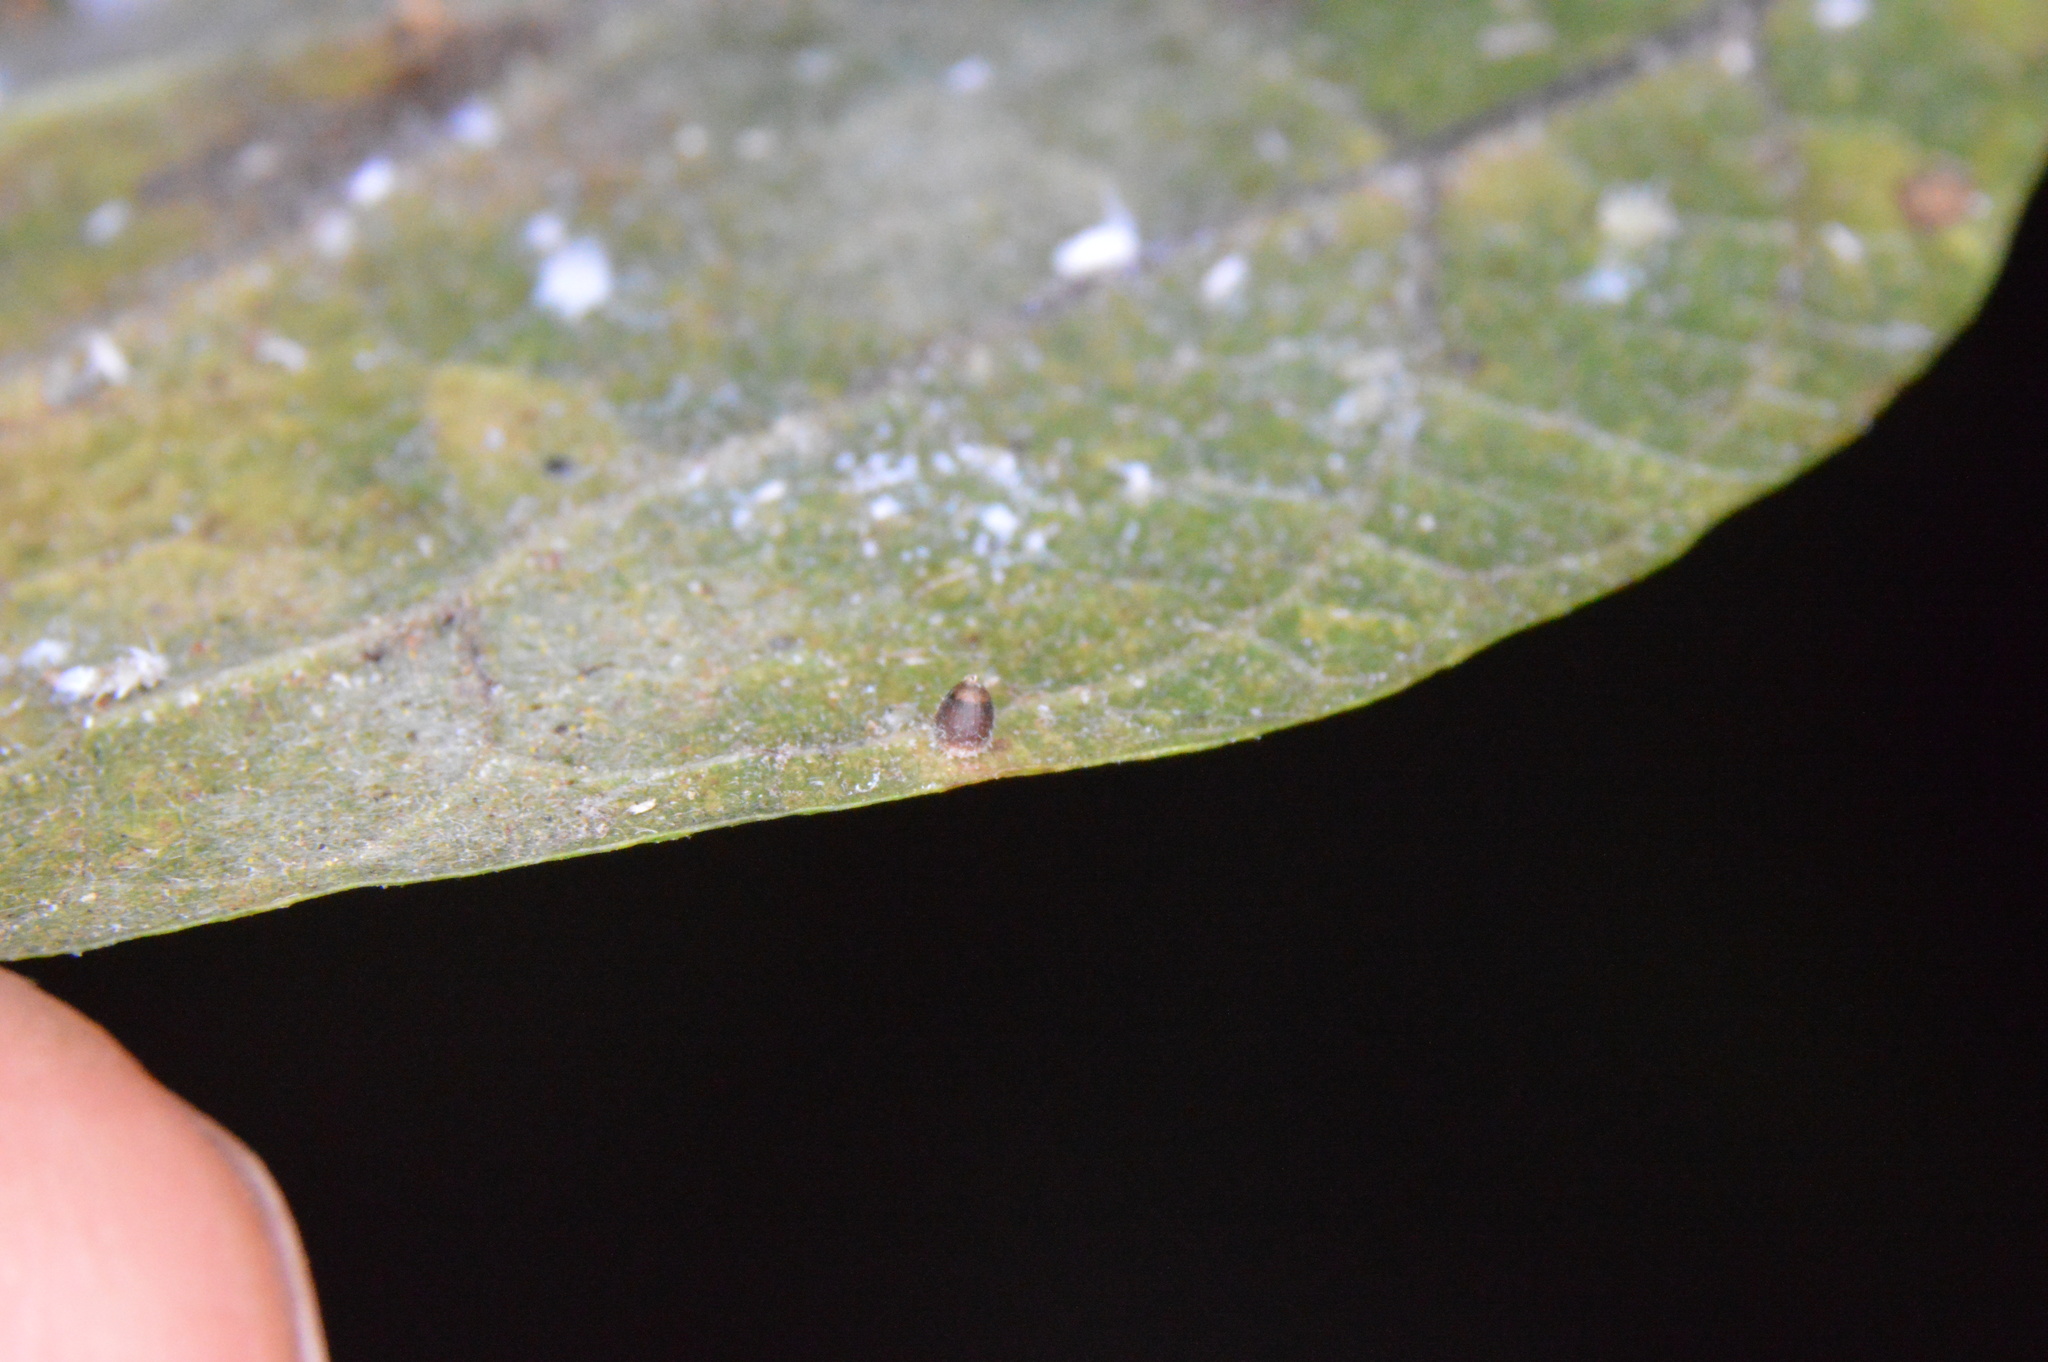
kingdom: Animalia
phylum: Arthropoda
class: Insecta
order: Diptera
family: Cecidomyiidae
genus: Celticecis
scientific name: Celticecis cupiformis
